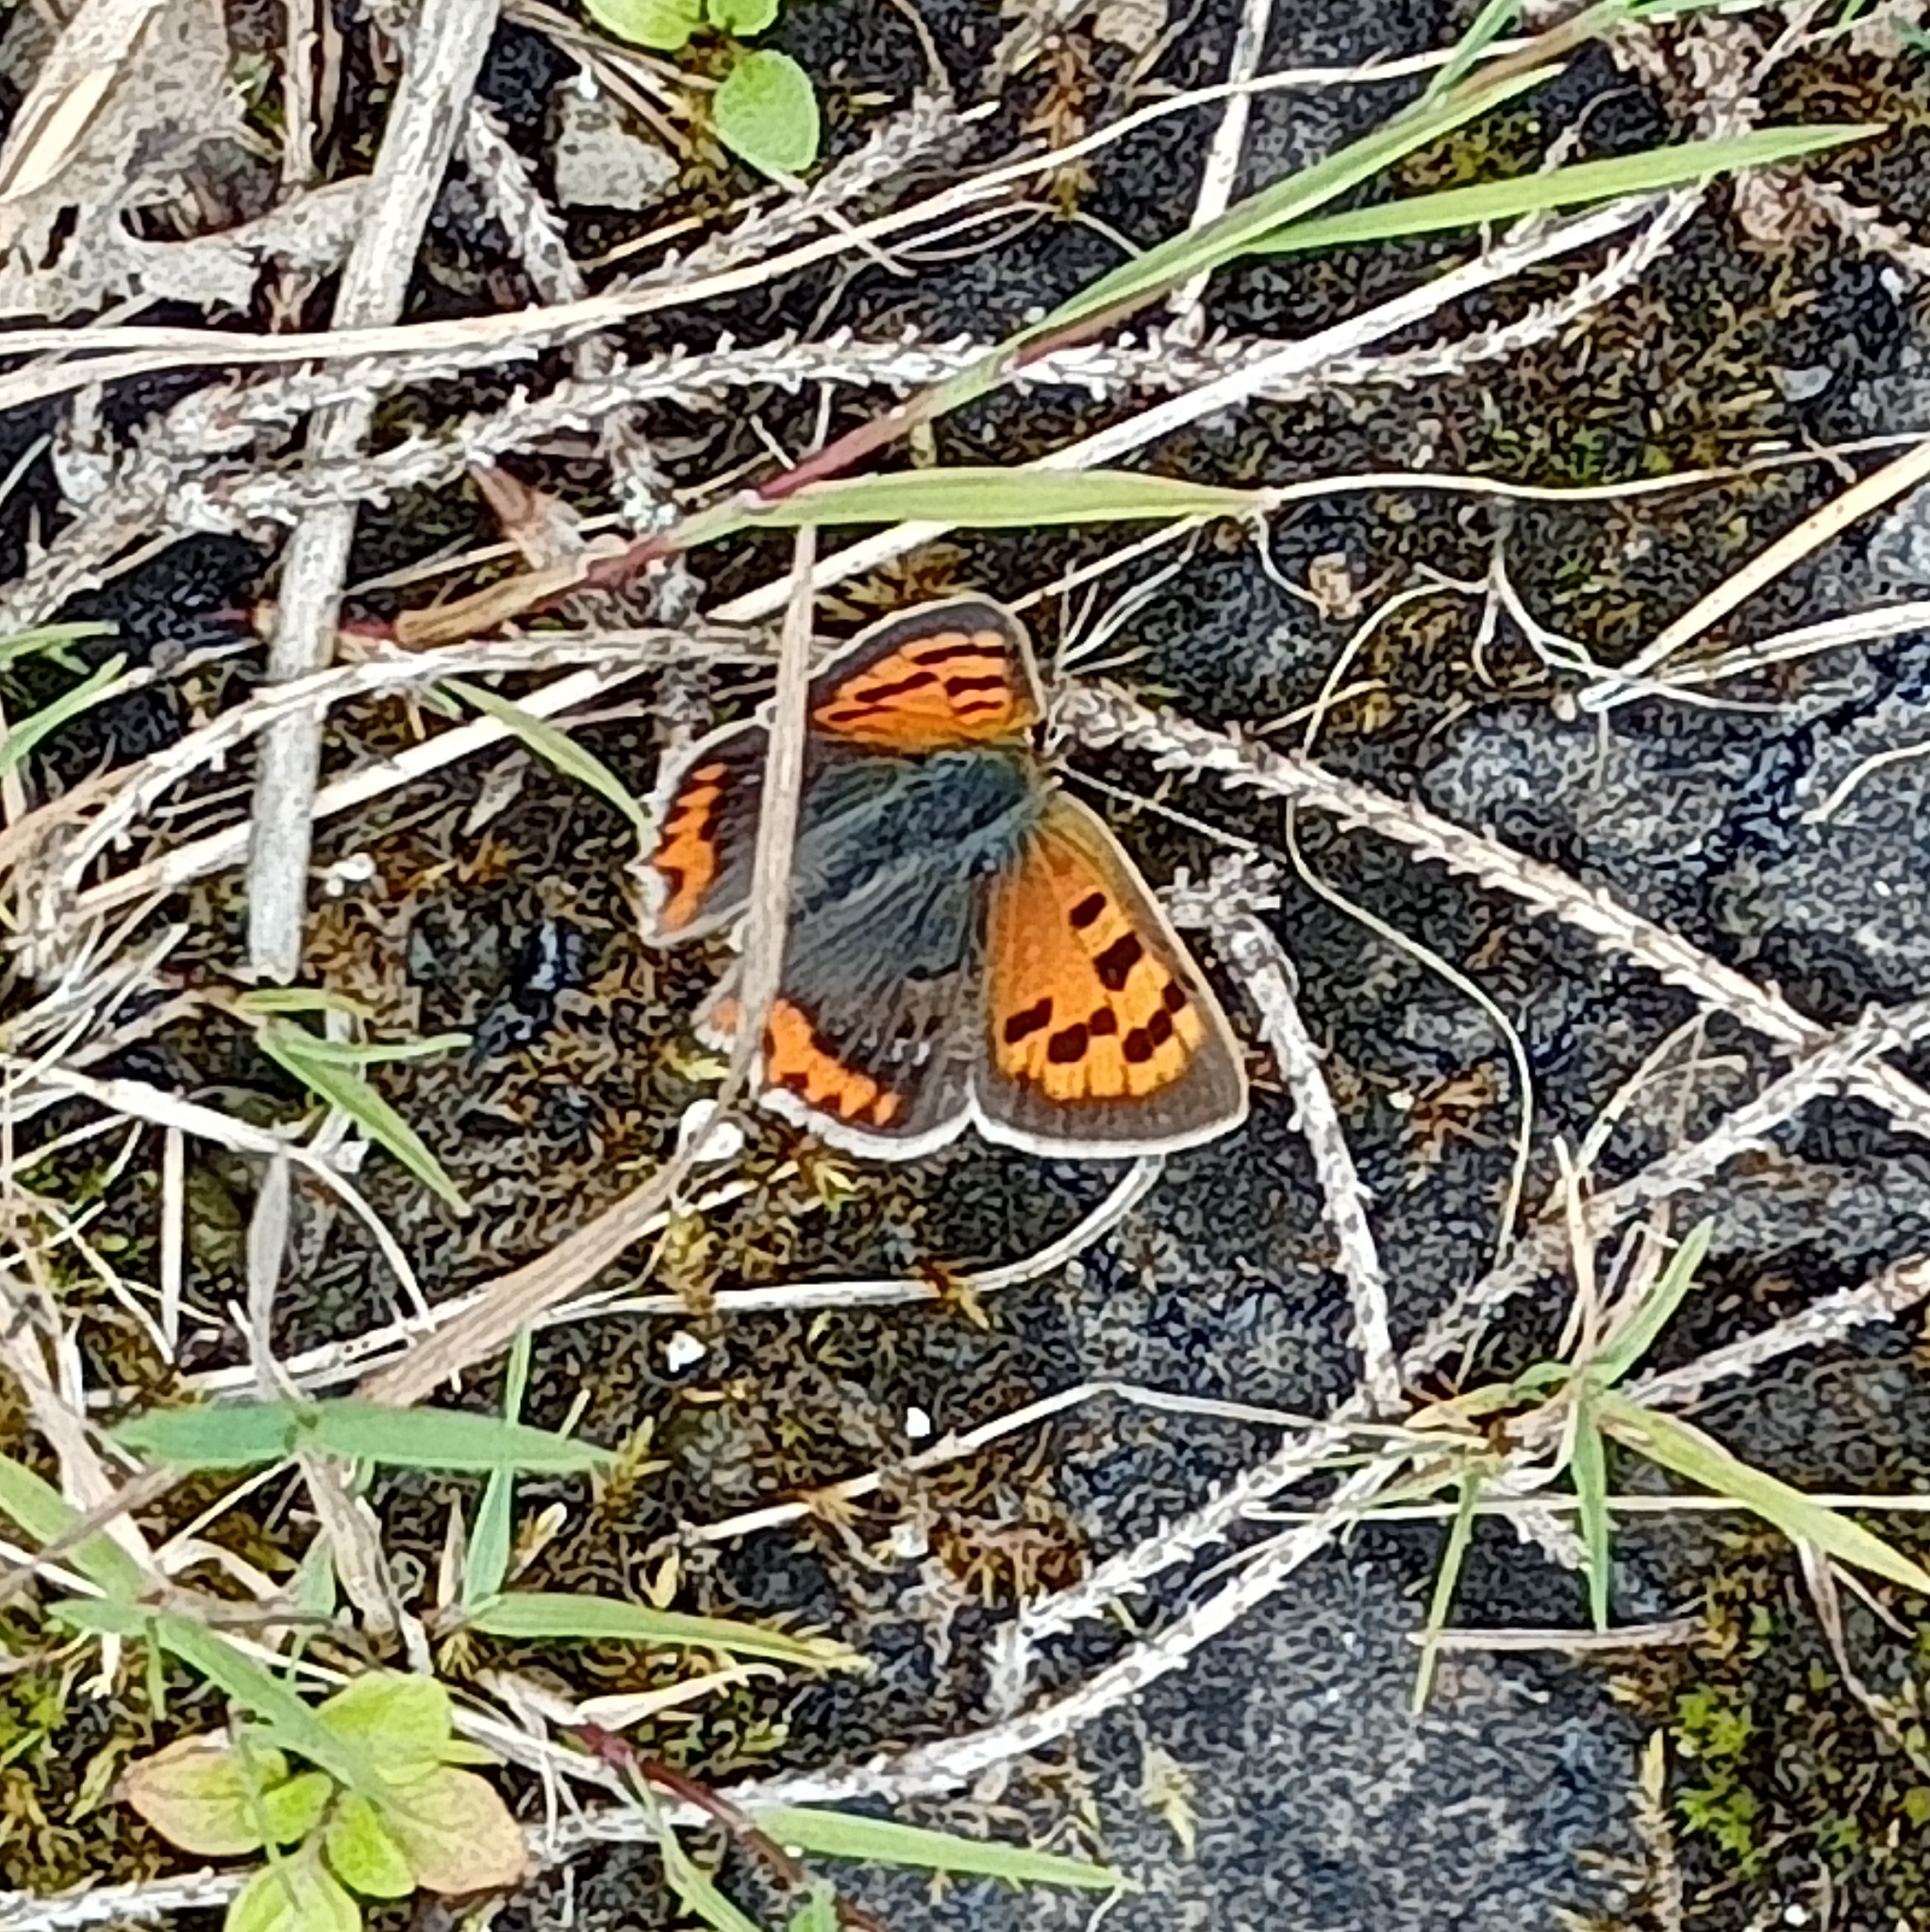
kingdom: Animalia
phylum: Arthropoda
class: Insecta
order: Lepidoptera
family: Lycaenidae
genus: Lycaena
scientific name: Lycaena phlaeas
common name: Small copper
